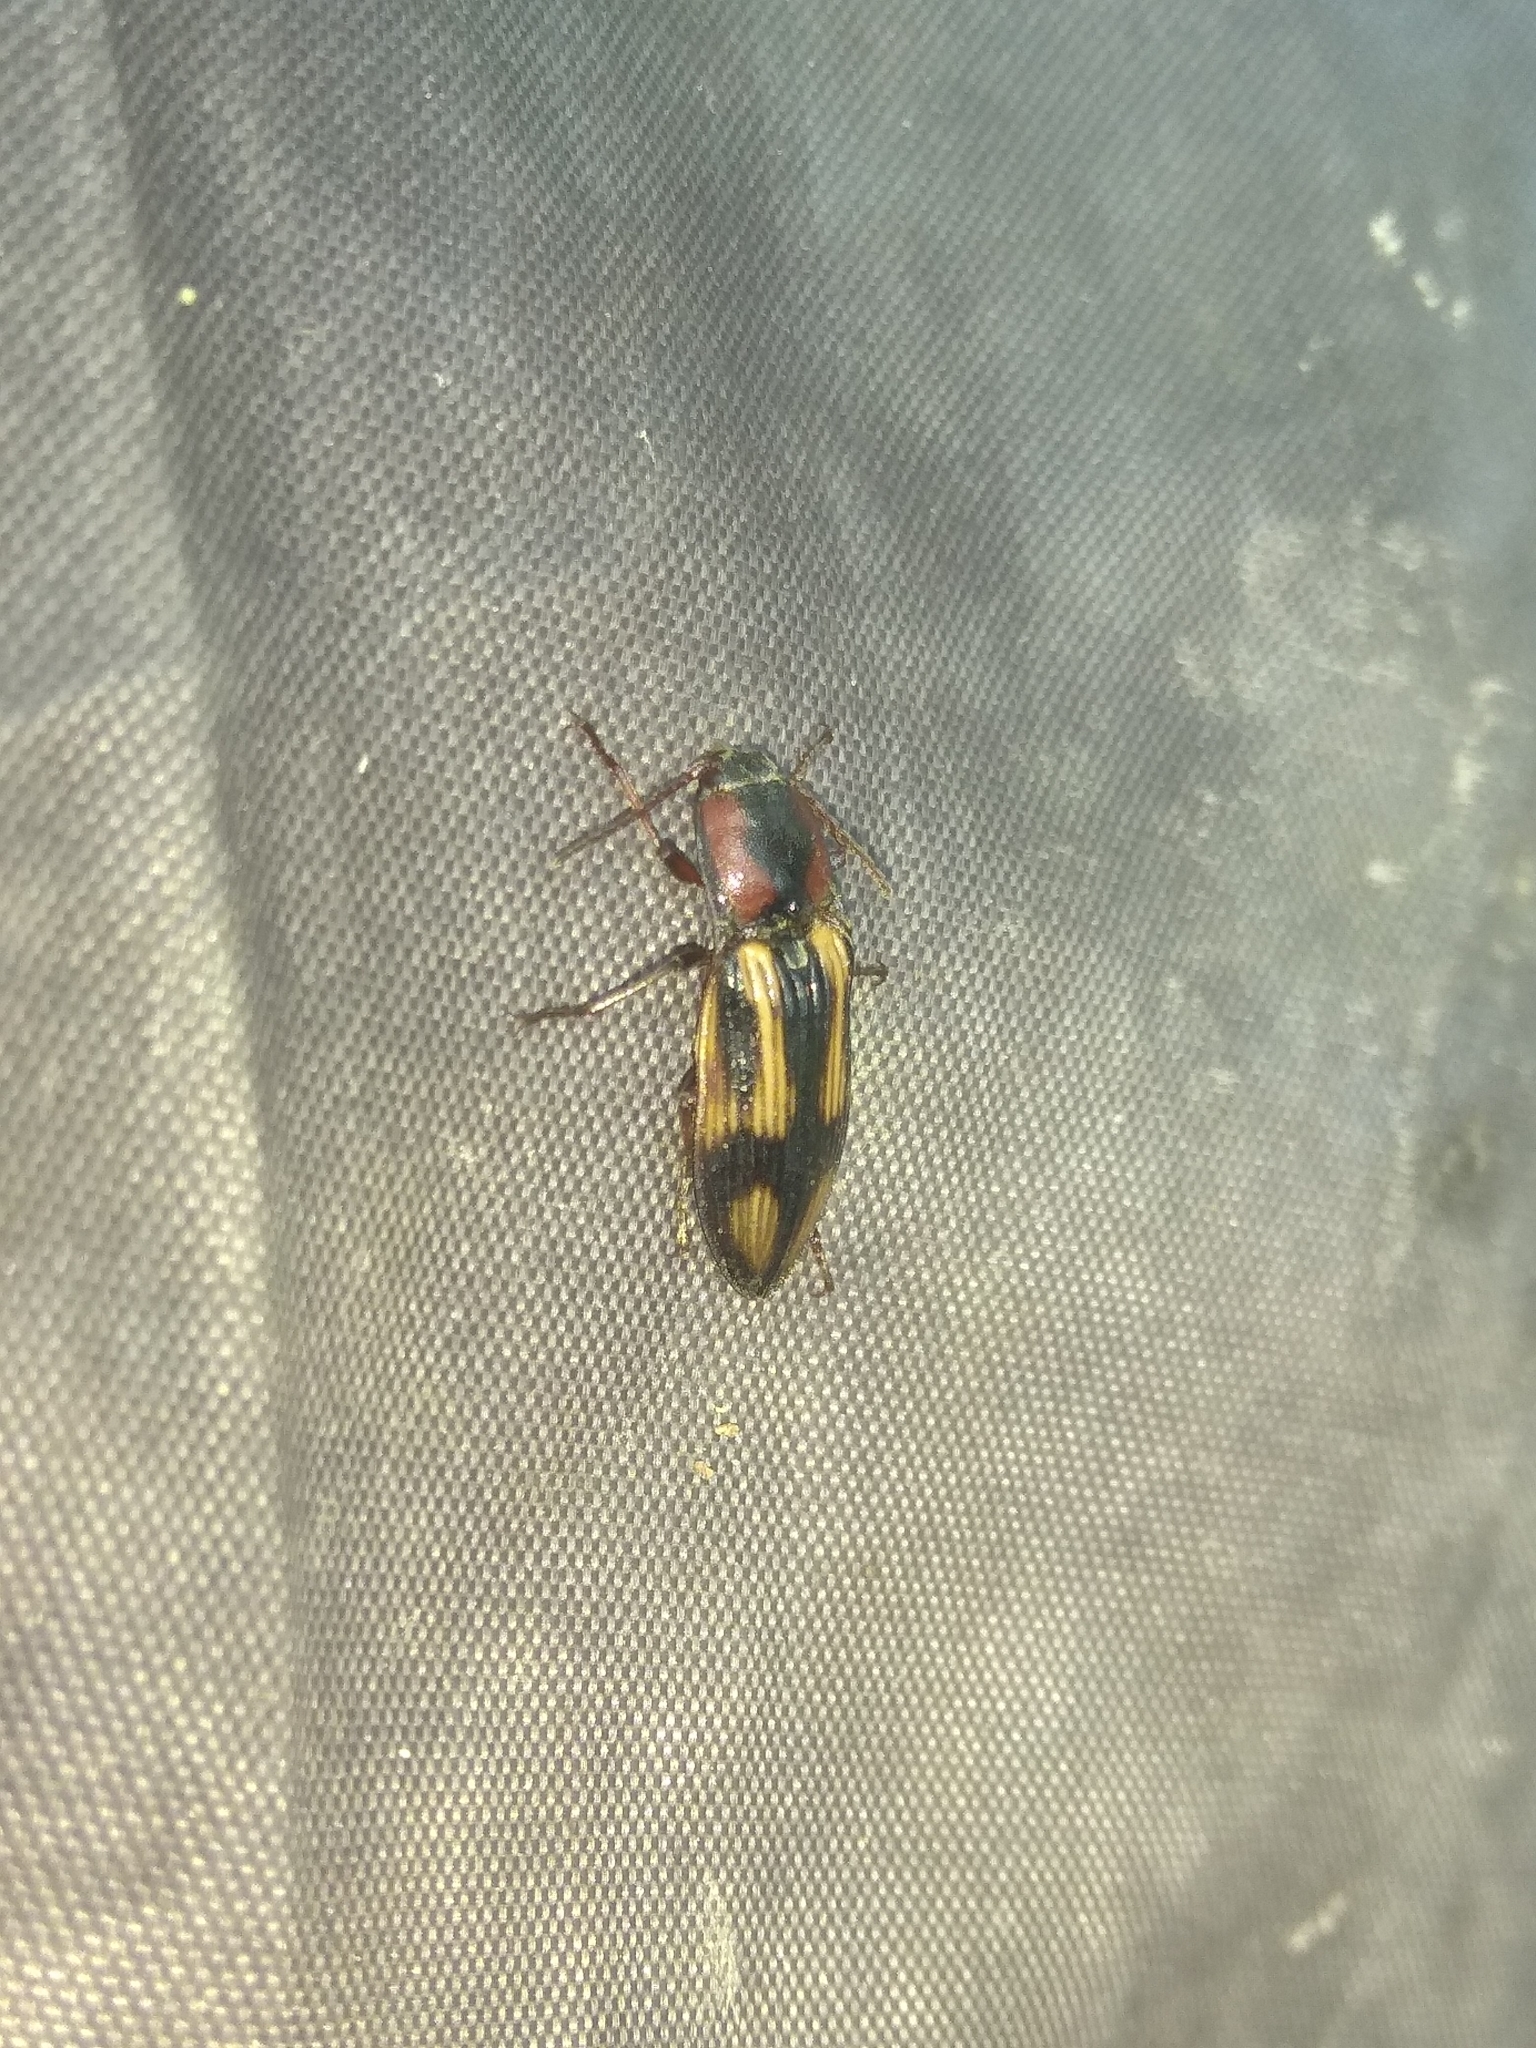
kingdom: Animalia
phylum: Arthropoda
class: Insecta
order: Coleoptera
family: Elateridae
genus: Selatosomus
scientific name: Selatosomus cruciatus
